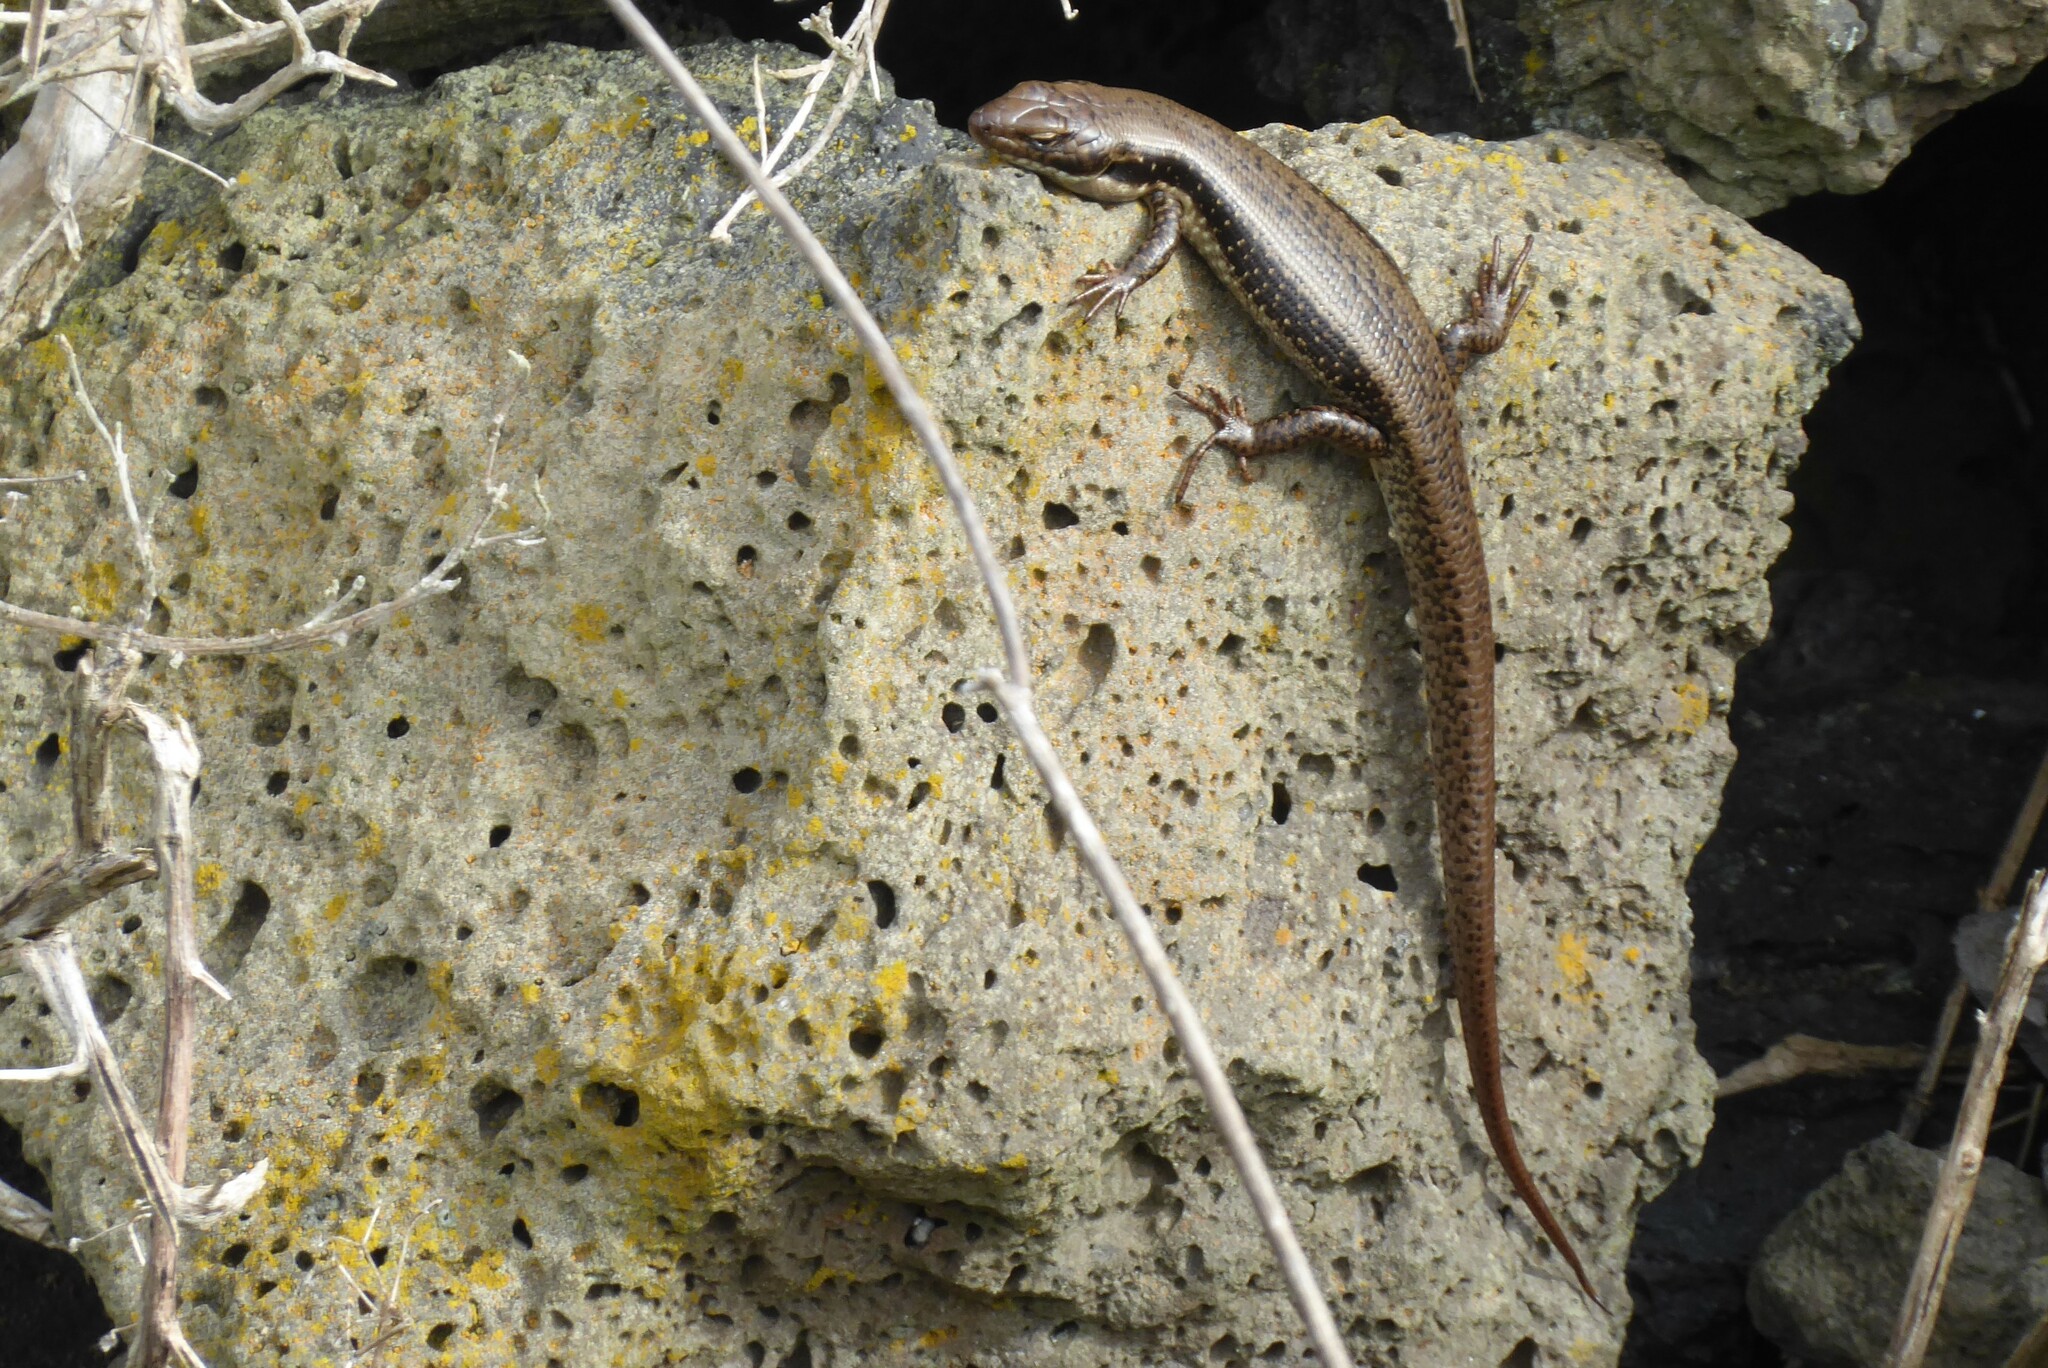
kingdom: Animalia
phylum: Chordata
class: Squamata
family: Scincidae
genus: Eulamprus
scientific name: Eulamprus tympanum
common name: Cool-temperate water-skink
